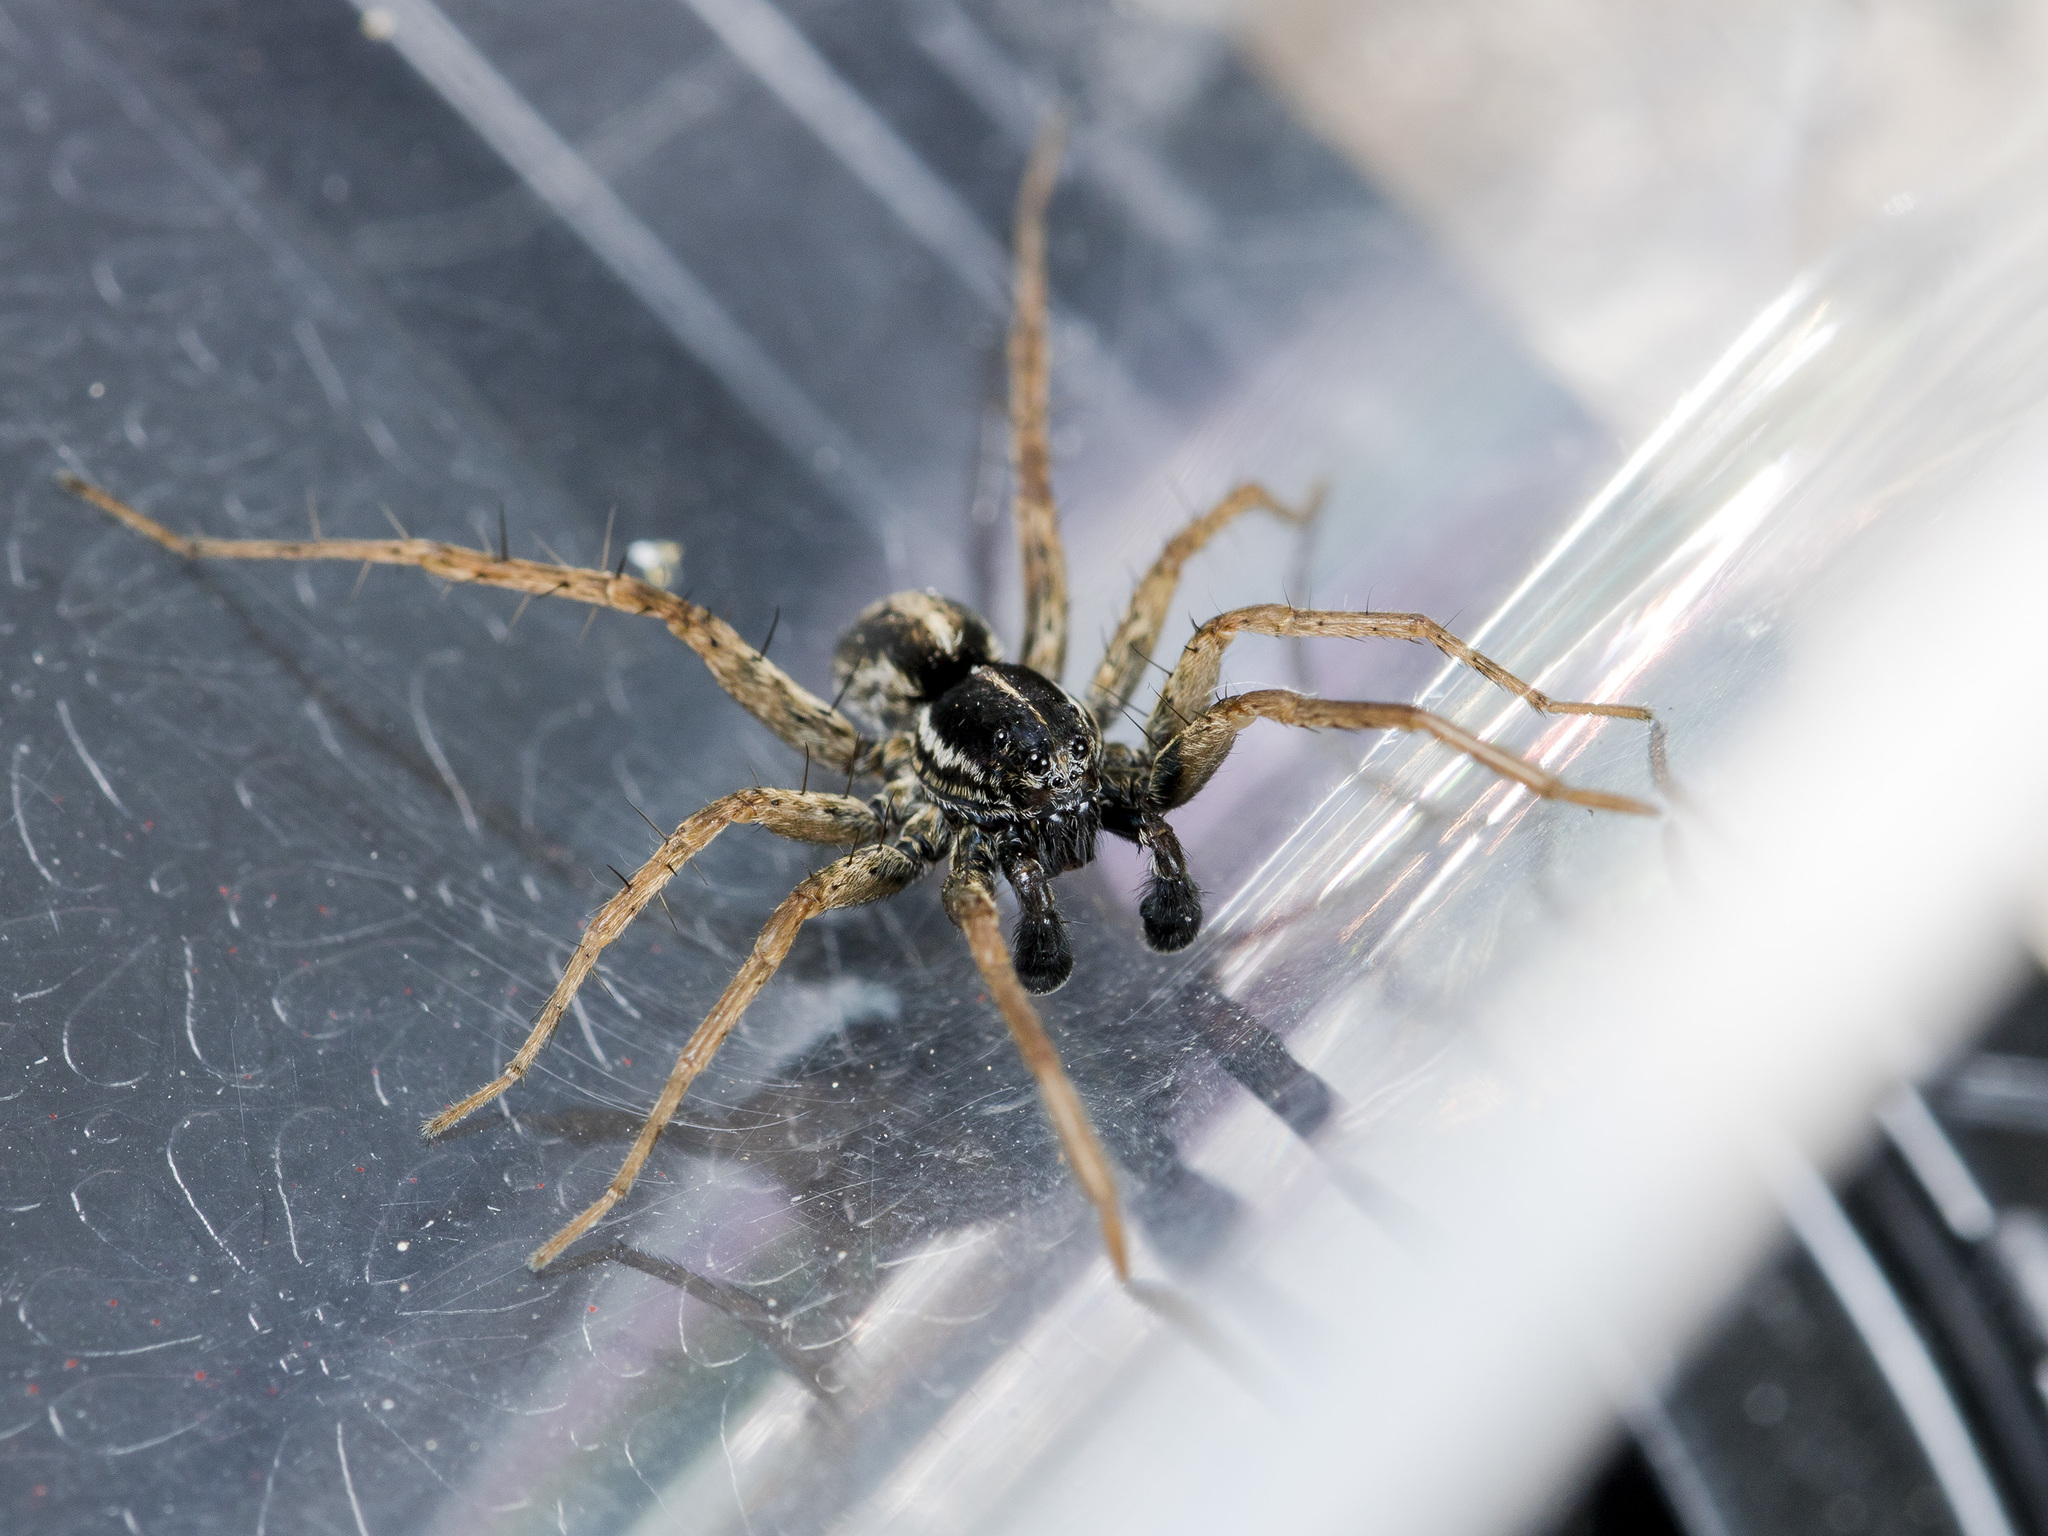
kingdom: Animalia
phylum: Arthropoda
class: Arachnida
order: Araneae
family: Lycosidae
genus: Pardosa
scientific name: Pardosa zonsteini
